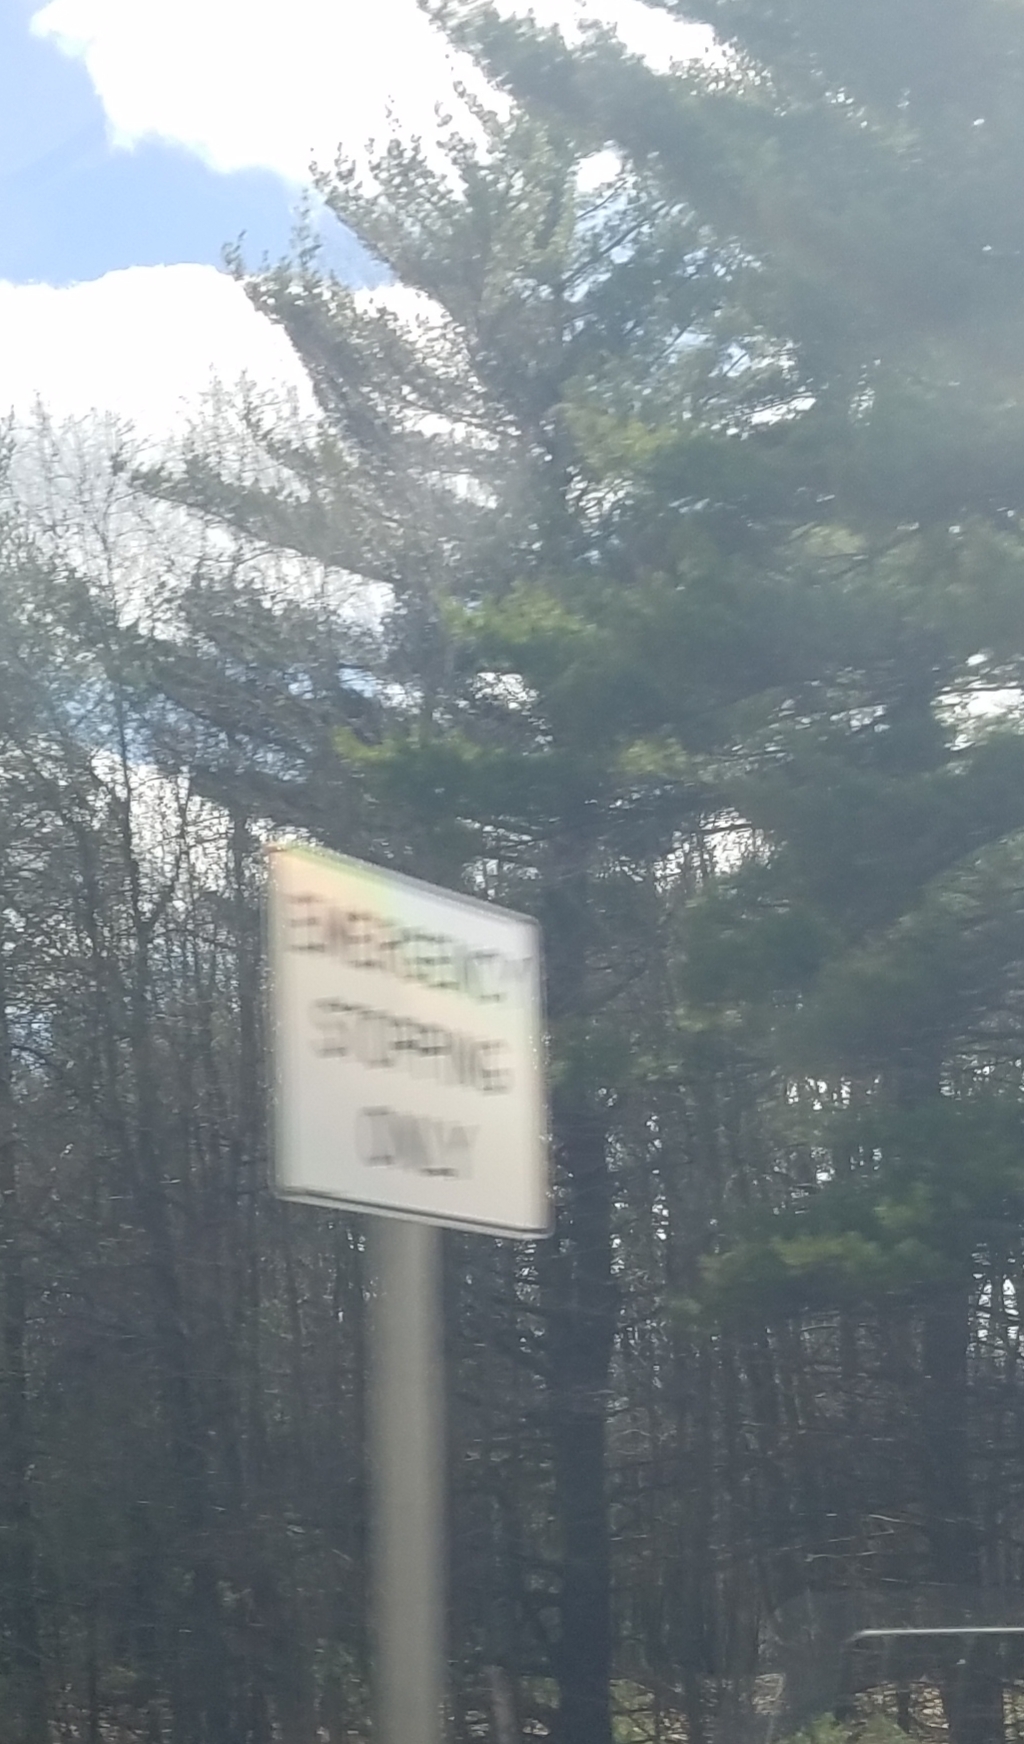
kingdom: Plantae
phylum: Tracheophyta
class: Pinopsida
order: Pinales
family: Pinaceae
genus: Pinus
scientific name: Pinus strobus
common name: Weymouth pine
